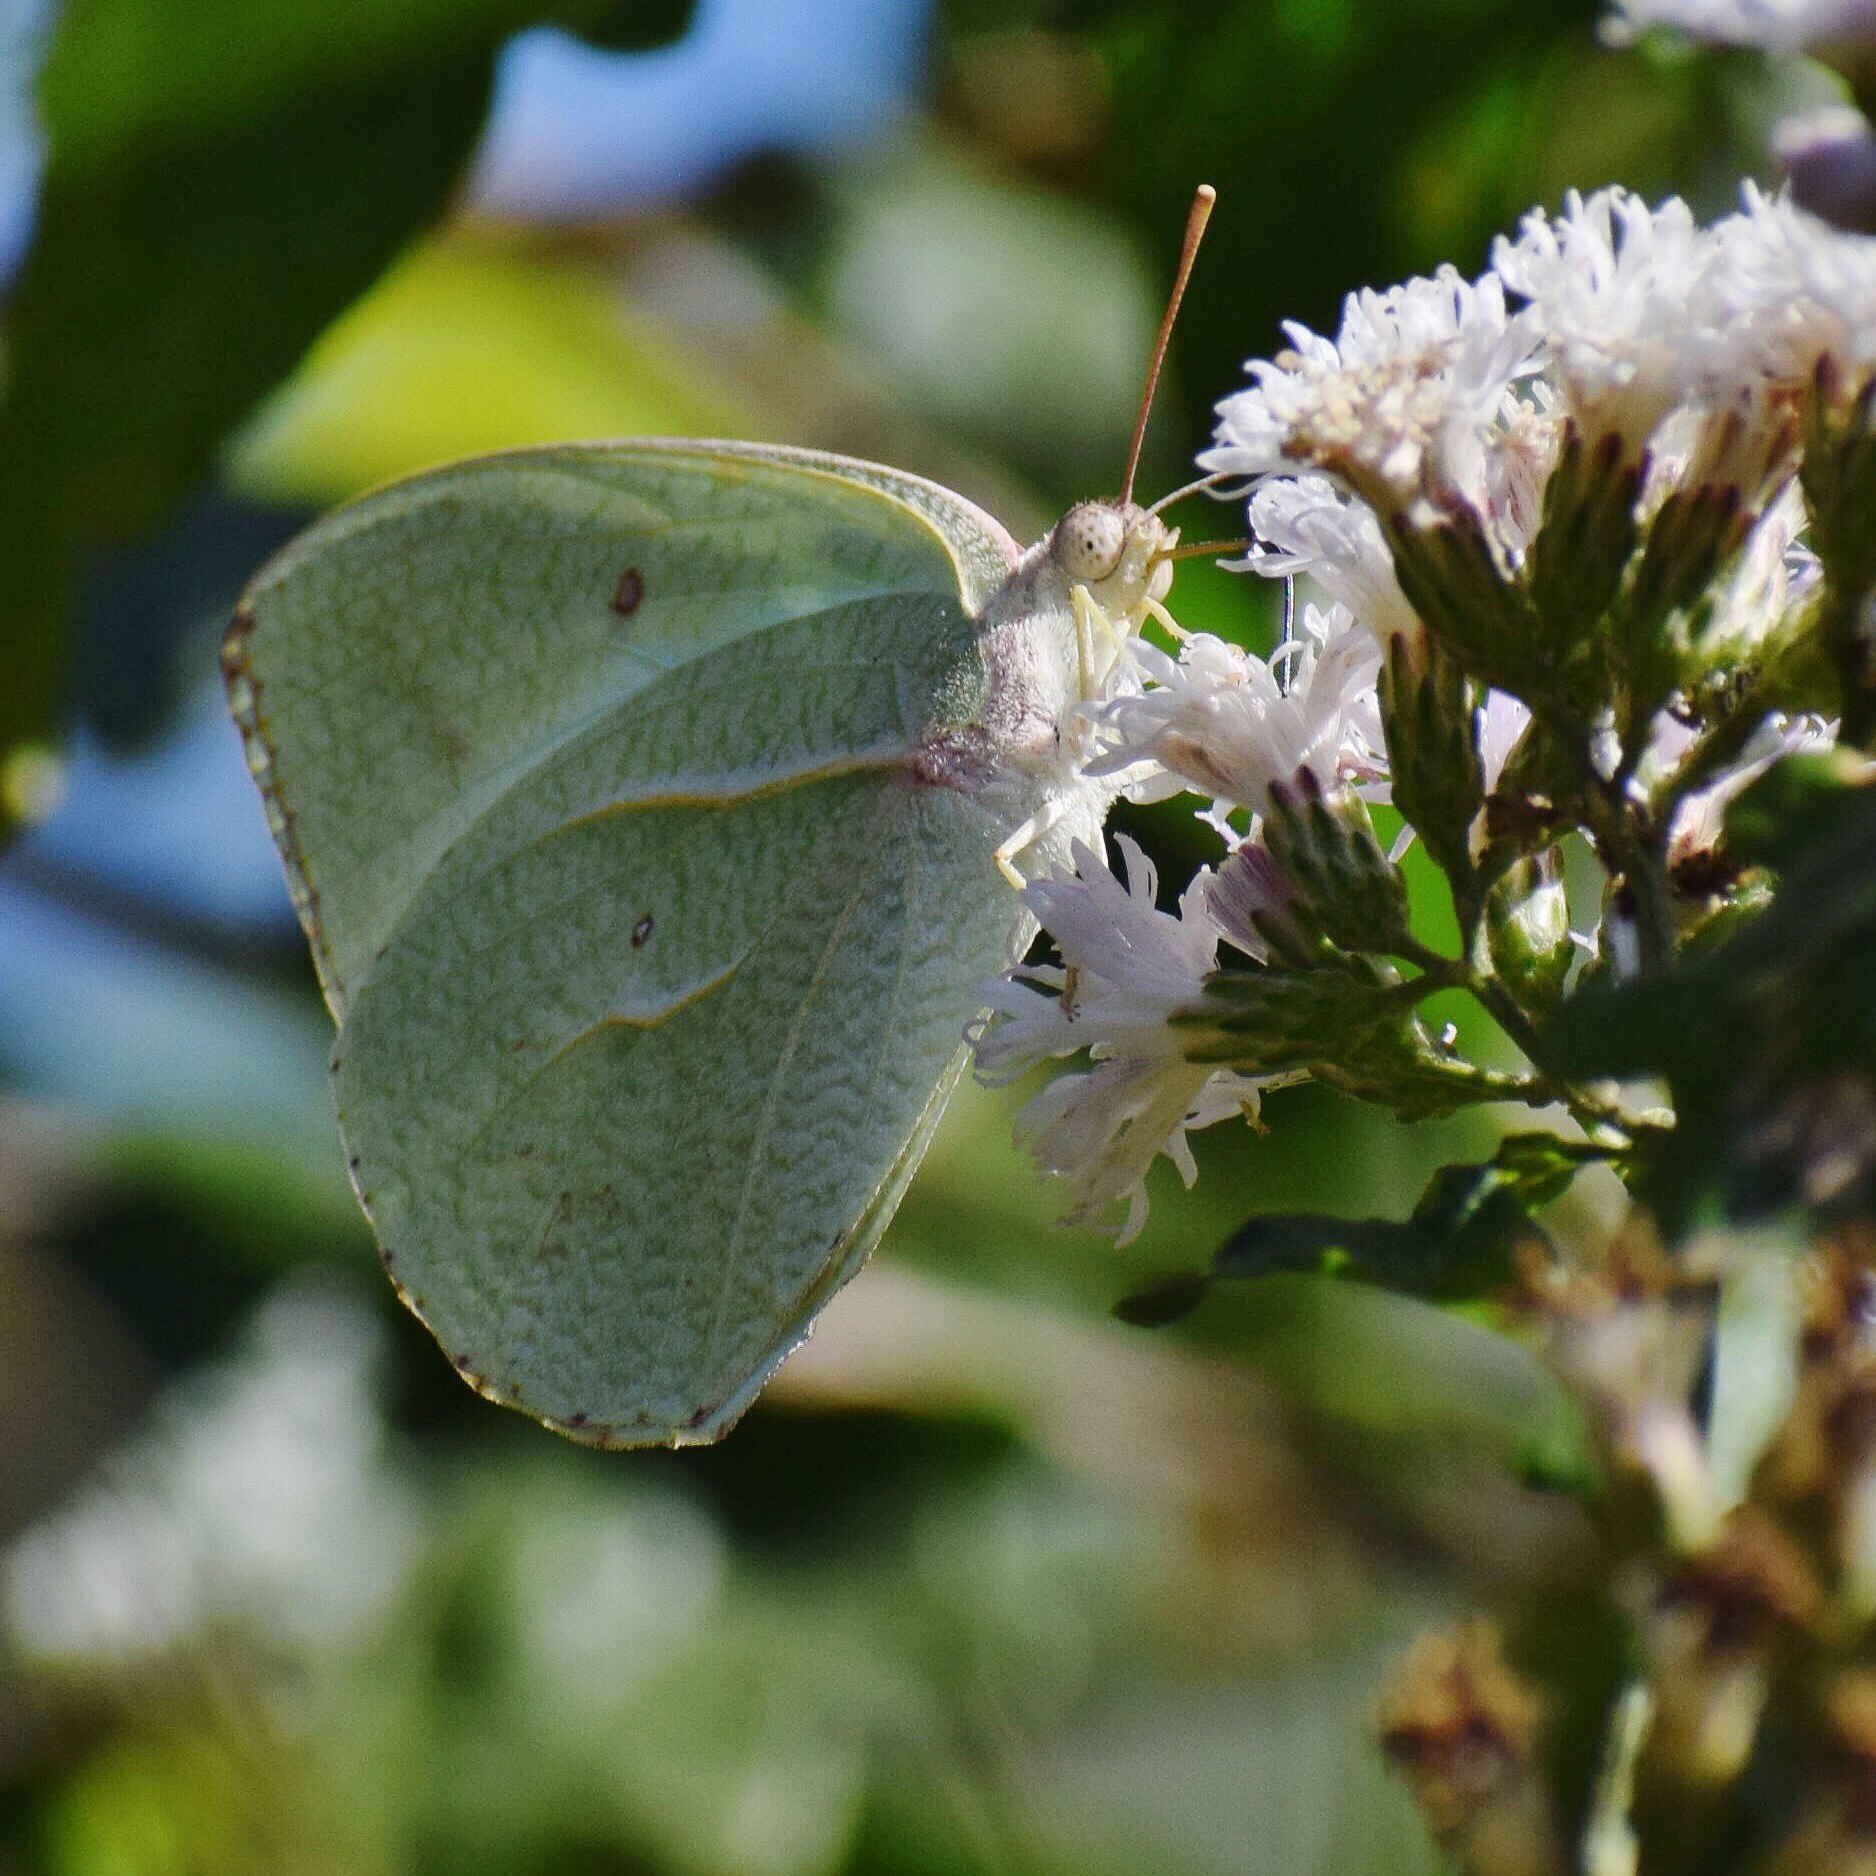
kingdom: Animalia
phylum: Arthropoda
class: Insecta
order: Lepidoptera
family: Pieridae
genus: Catopsilia
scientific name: Catopsilia florella
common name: African migrant
